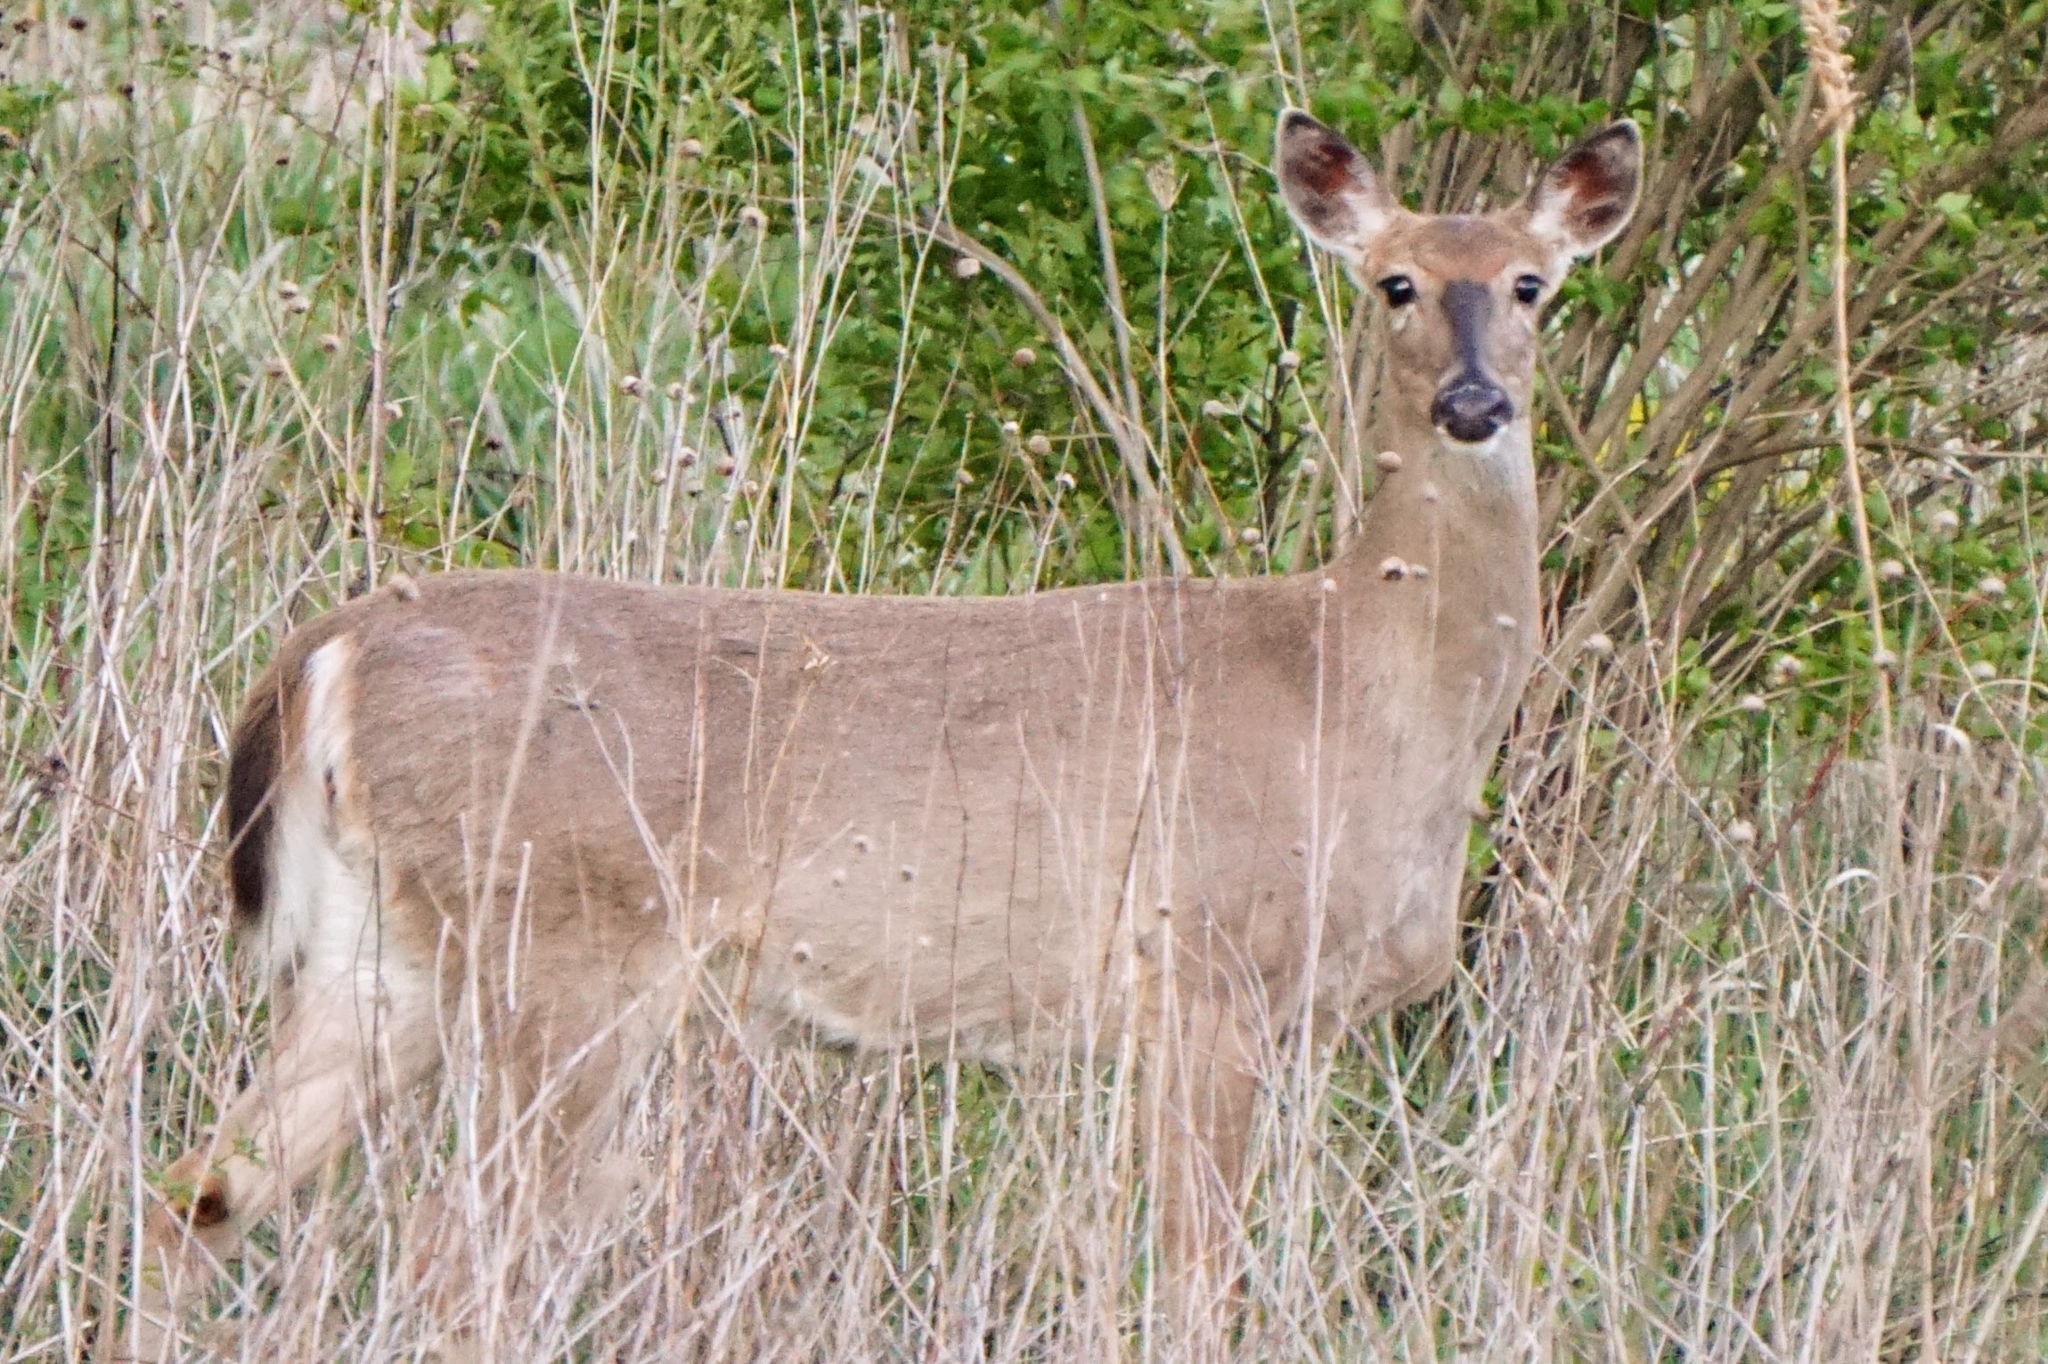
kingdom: Animalia
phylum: Chordata
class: Mammalia
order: Artiodactyla
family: Cervidae
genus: Odocoileus
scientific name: Odocoileus virginianus
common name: White-tailed deer
